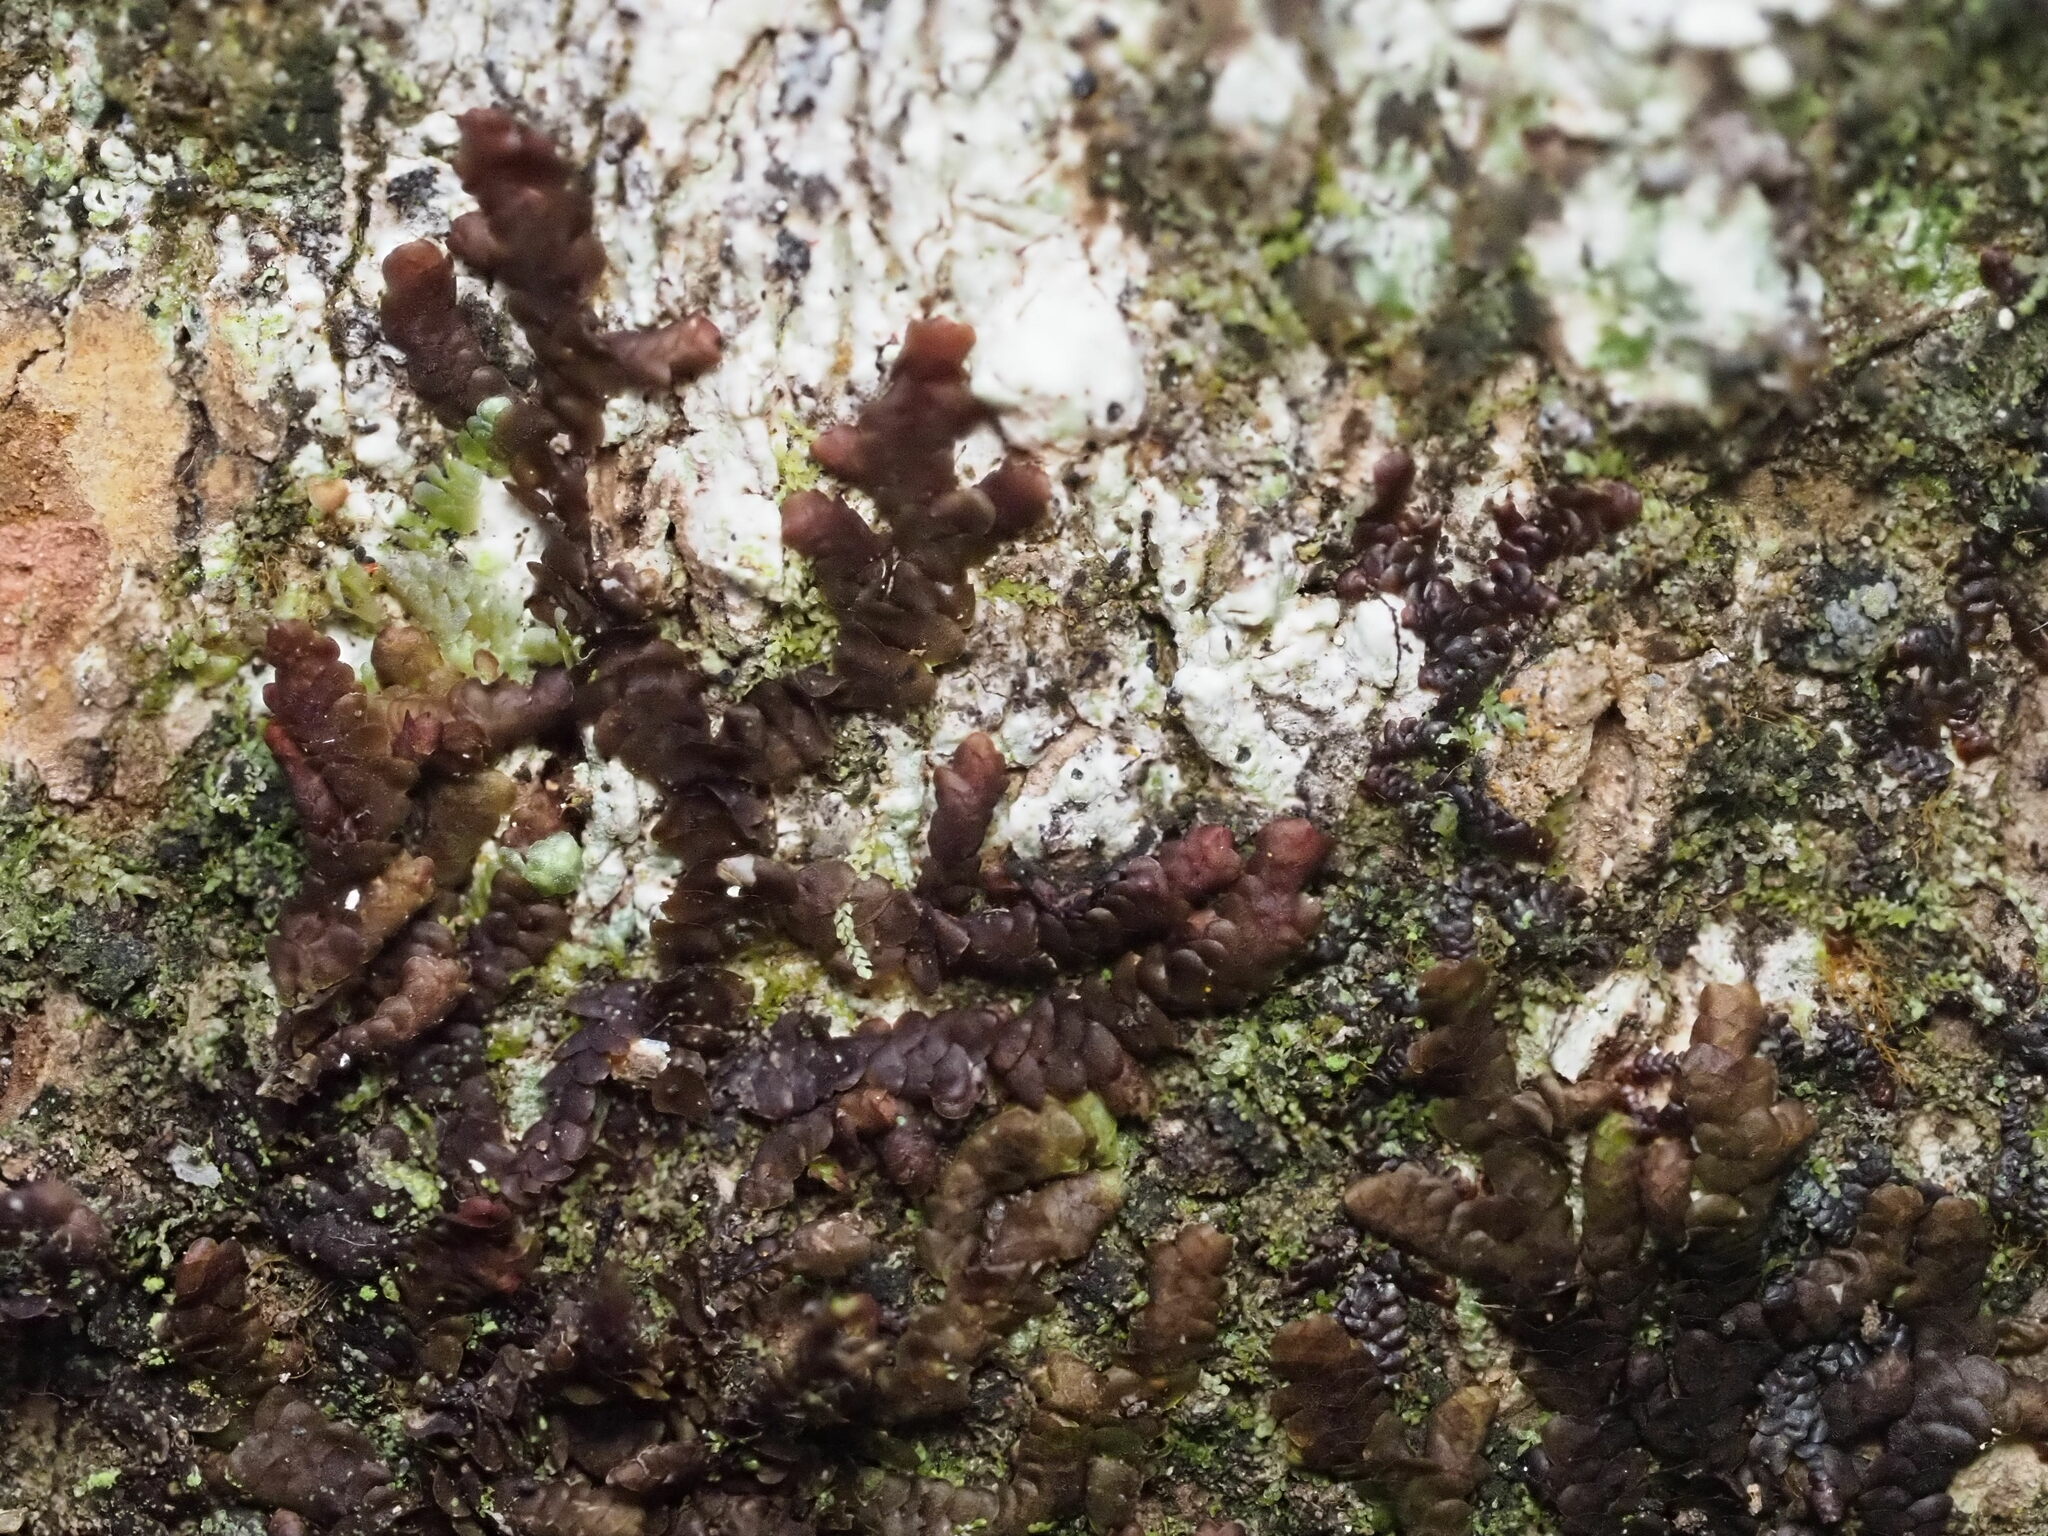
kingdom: Plantae
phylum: Marchantiophyta
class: Jungermanniopsida
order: Porellales
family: Frullaniaceae
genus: Frullania
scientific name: Frullania hypoleuca
